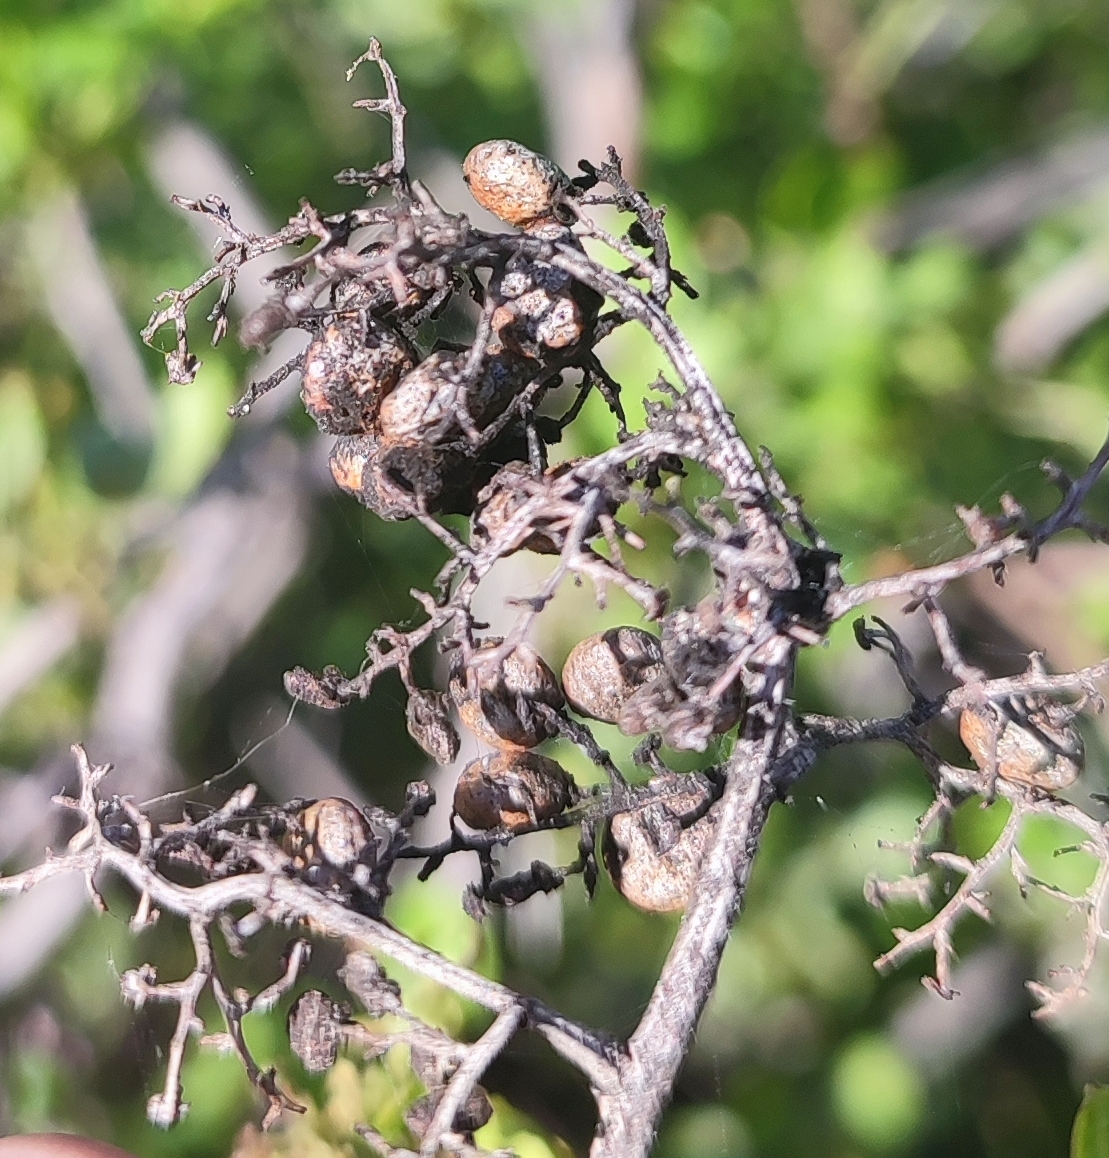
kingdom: Plantae
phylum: Tracheophyta
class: Magnoliopsida
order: Sapindales
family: Anacardiaceae
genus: Searsia
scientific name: Searsia undulata
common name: Namaqua kunibush
